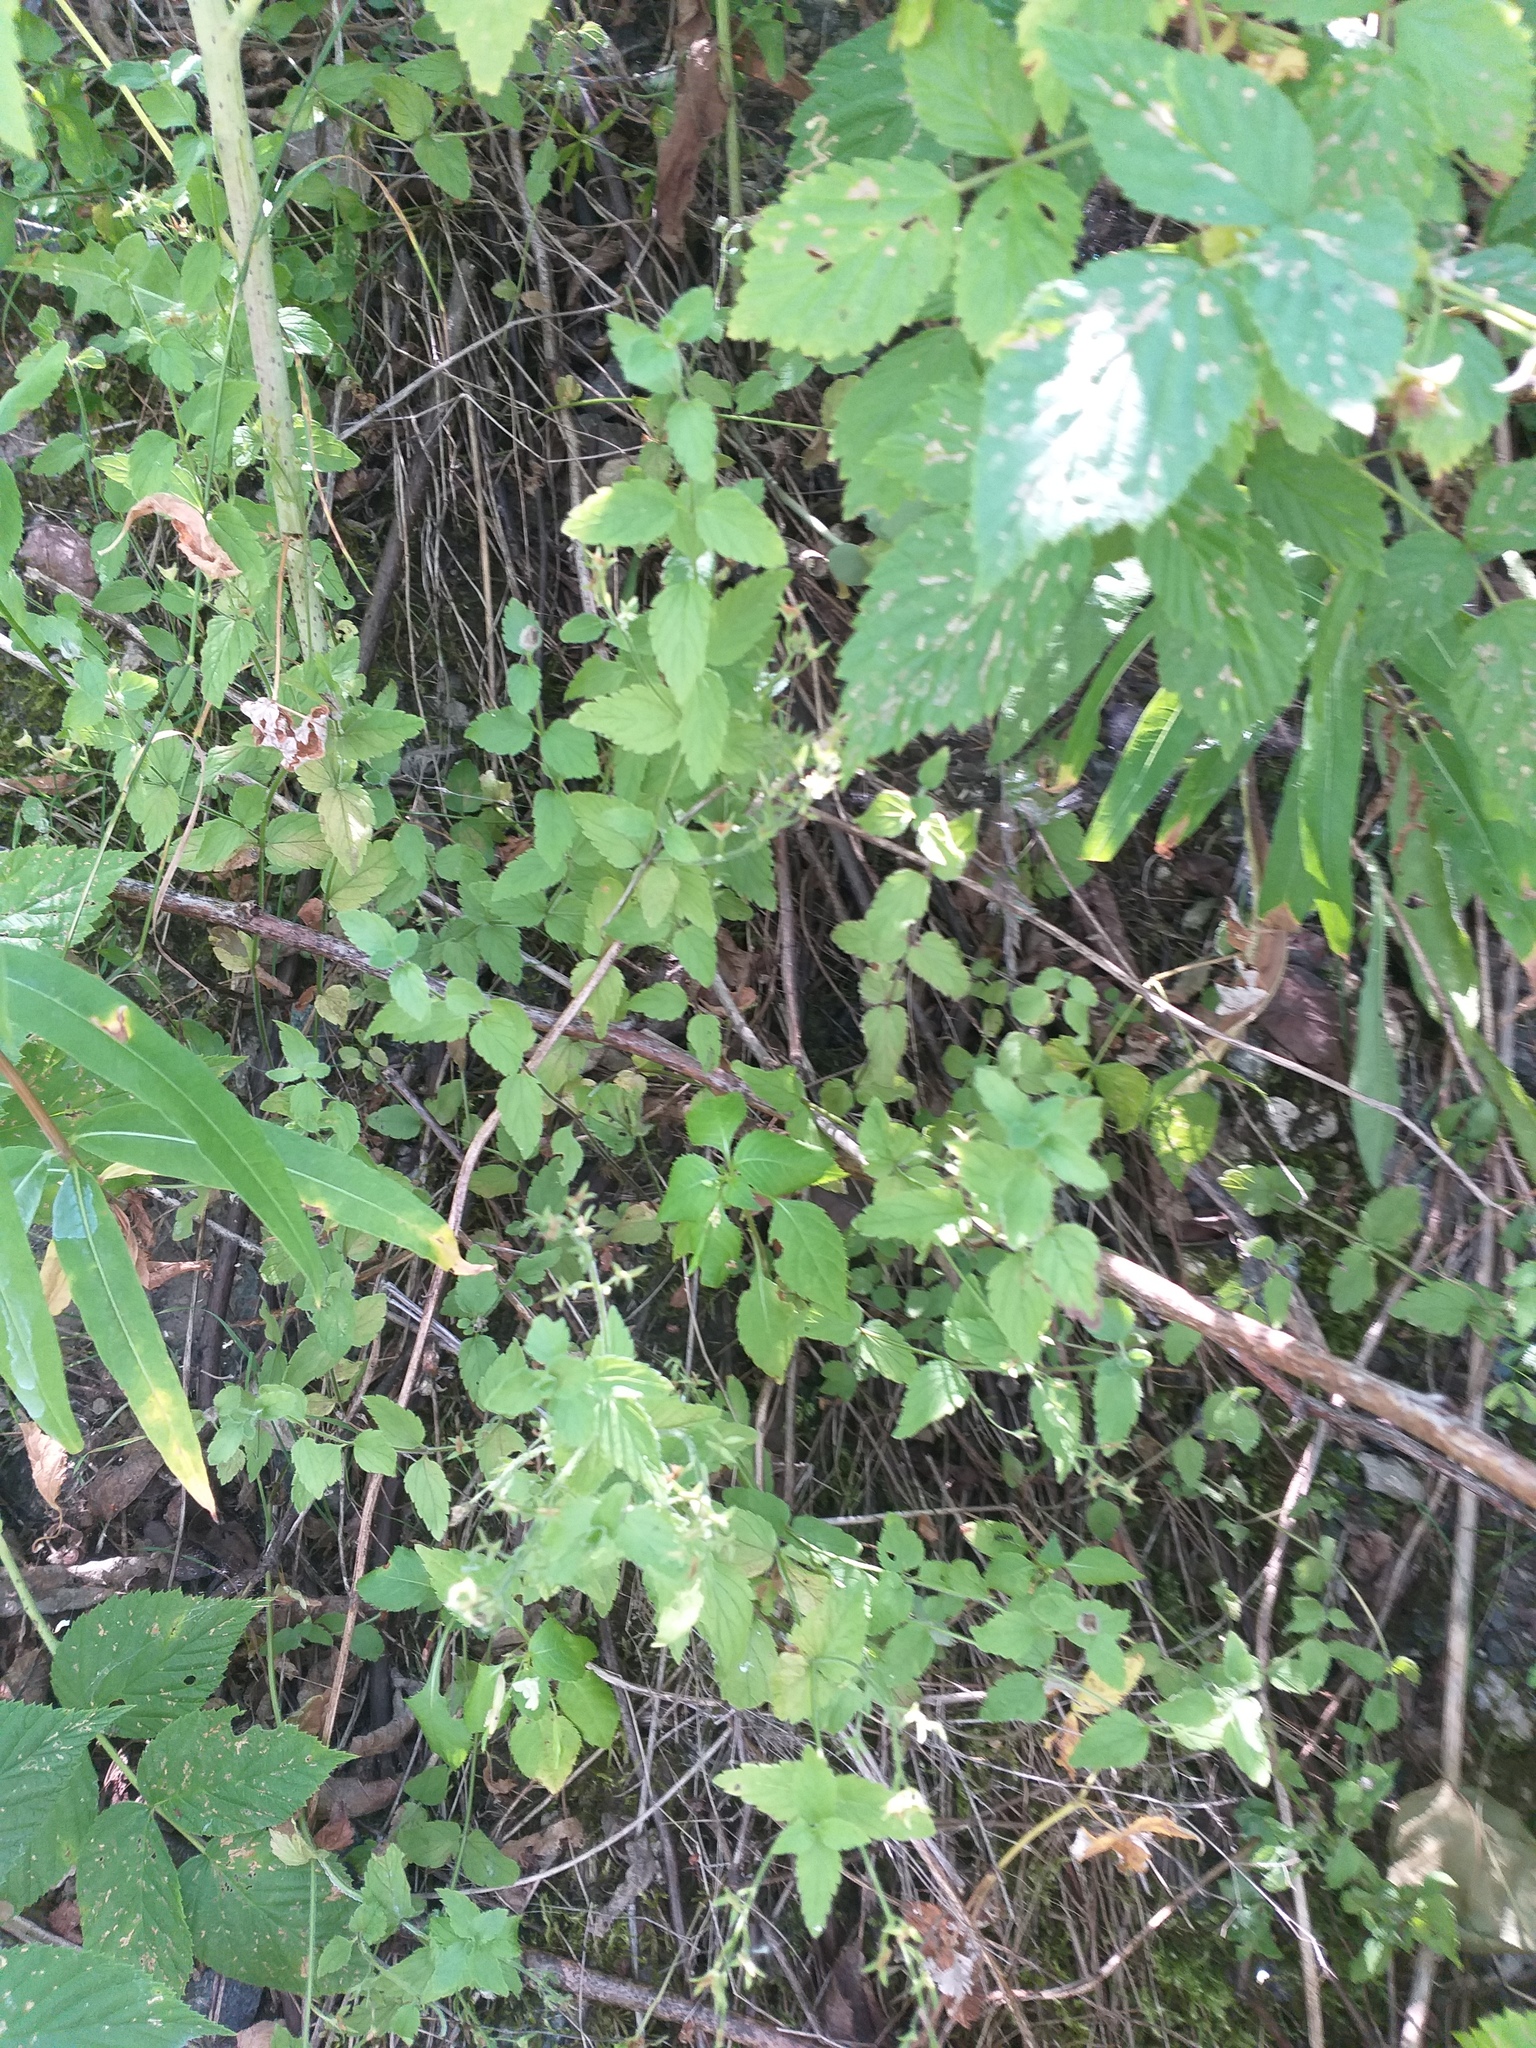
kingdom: Plantae
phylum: Tracheophyta
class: Magnoliopsida
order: Lamiales
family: Plantaginaceae
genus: Veronica
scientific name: Veronica chamaedrys
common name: Germander speedwell
